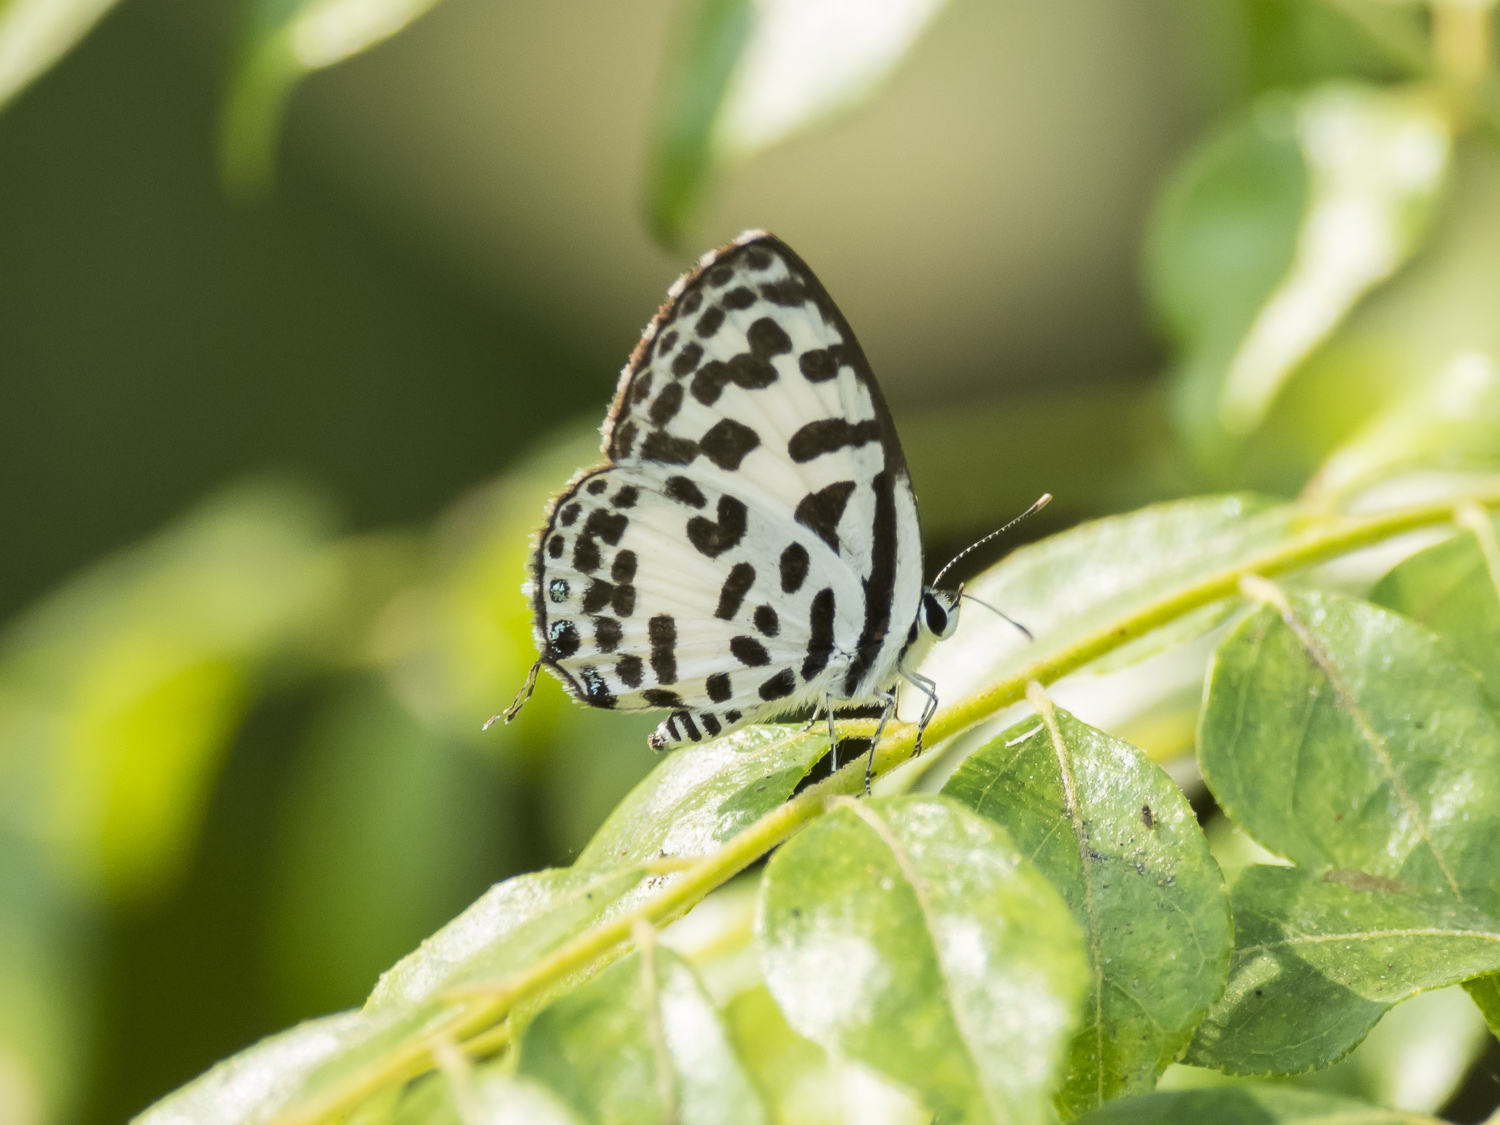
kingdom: Animalia
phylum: Arthropoda
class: Insecta
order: Lepidoptera
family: Lycaenidae
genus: Castalius
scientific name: Castalius rosimon
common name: Common pierrot
